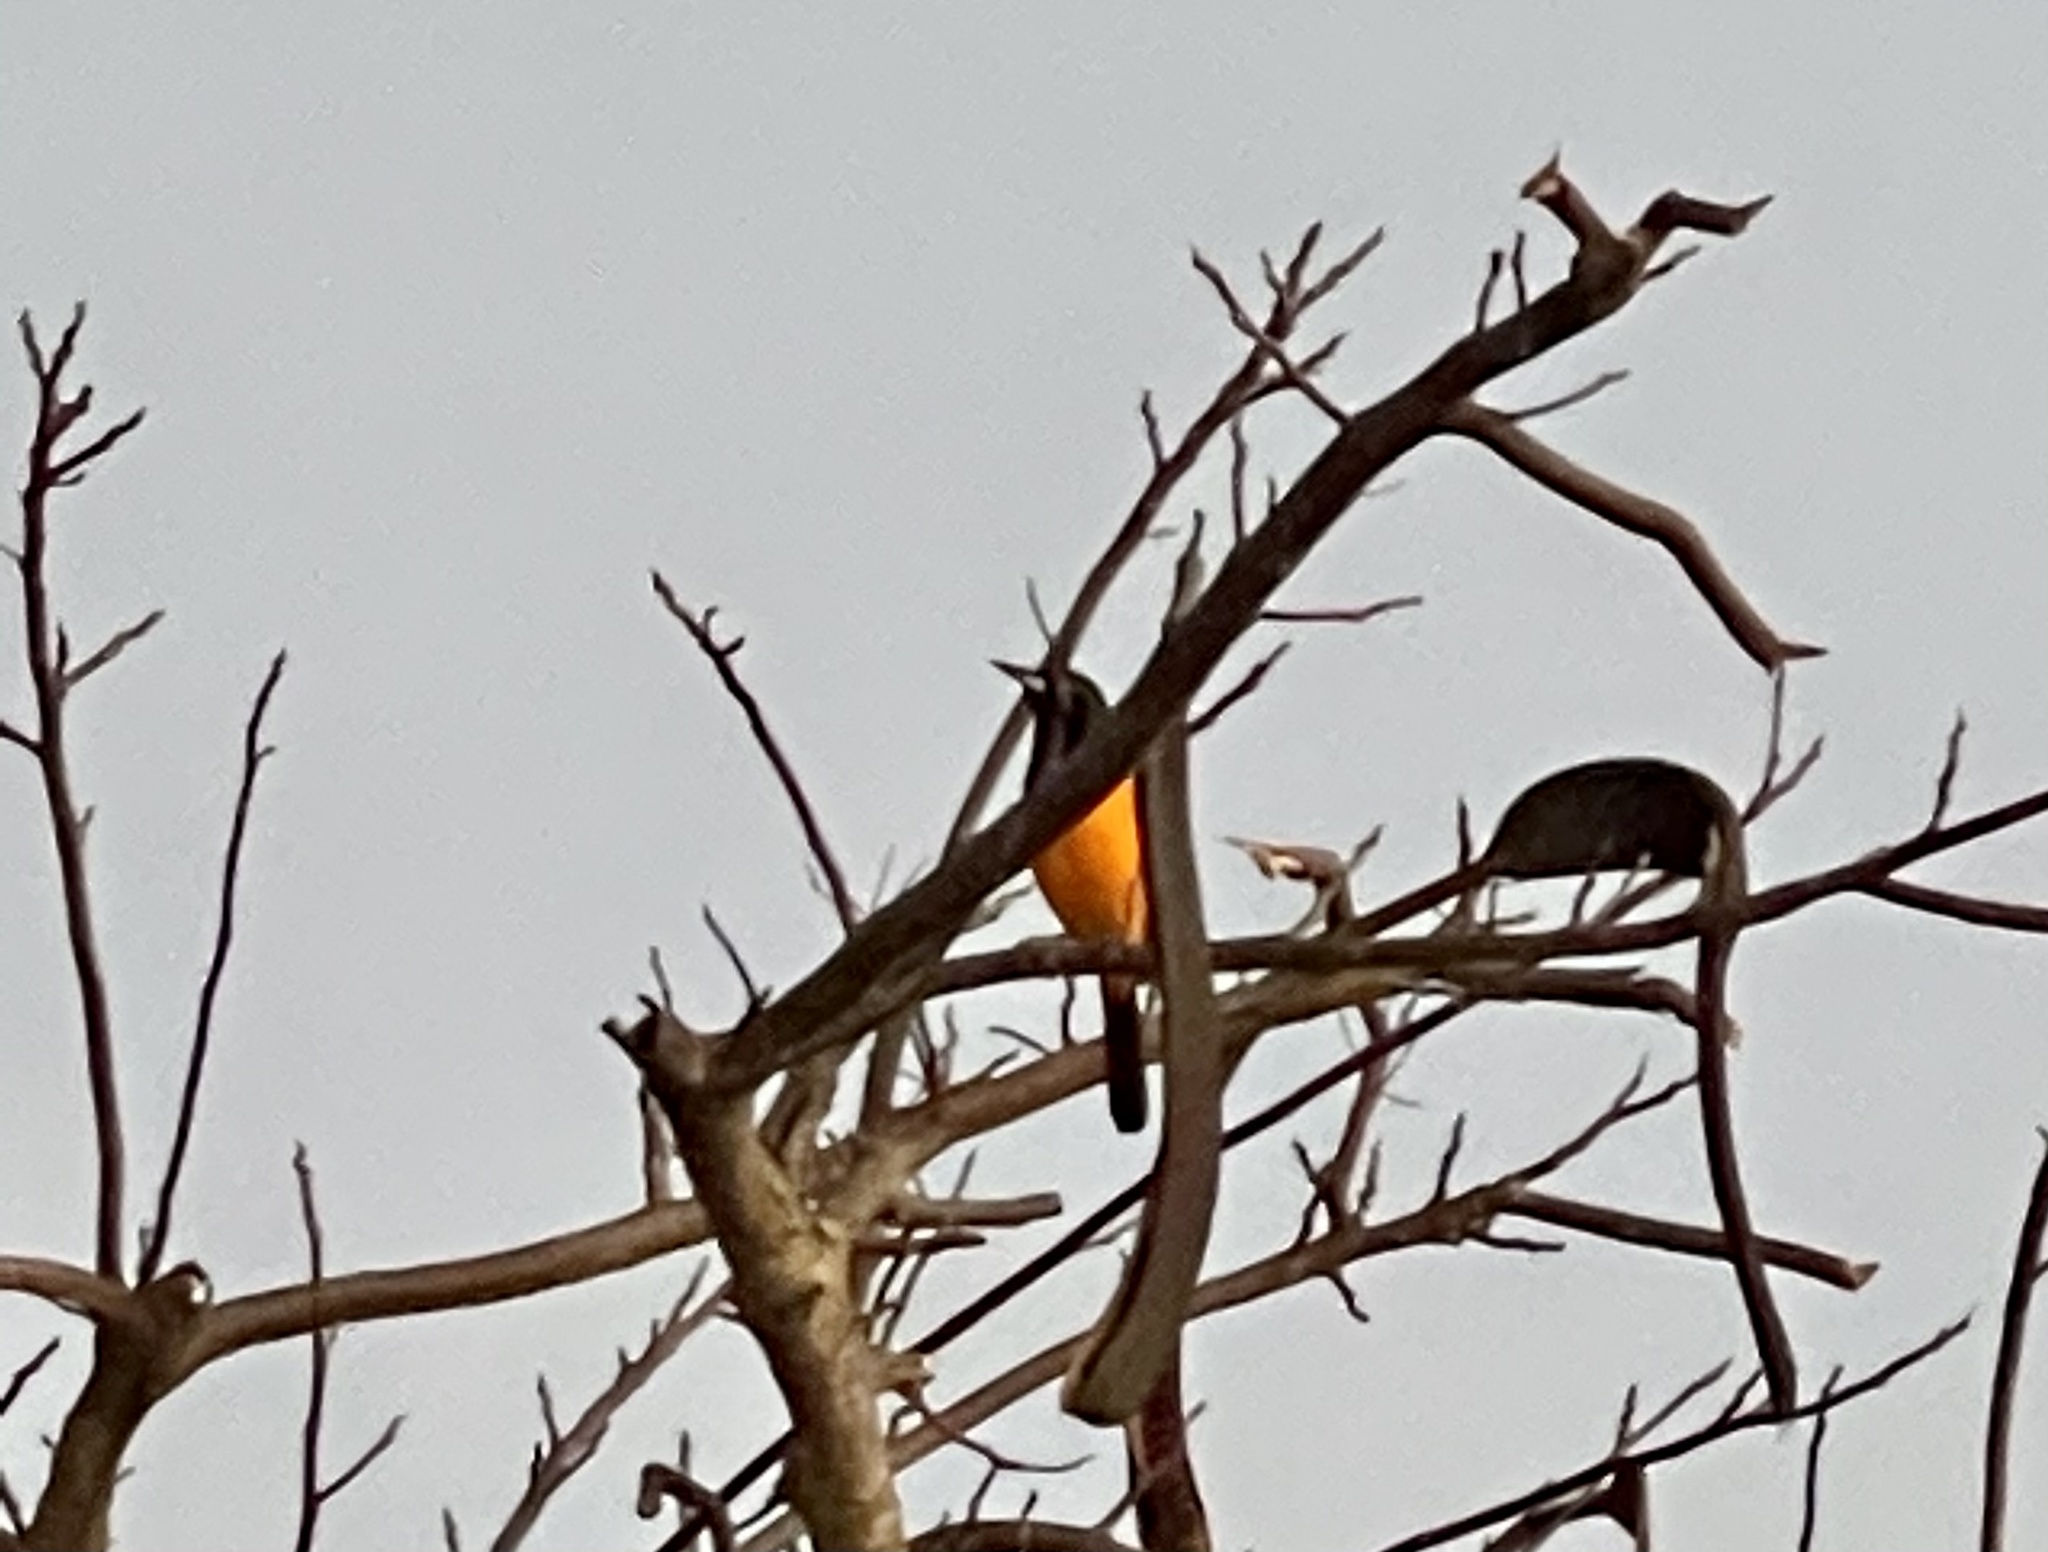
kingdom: Animalia
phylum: Chordata
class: Aves
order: Passeriformes
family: Icteridae
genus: Icterus
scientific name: Icterus icterus
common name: Venezuelan troupial
